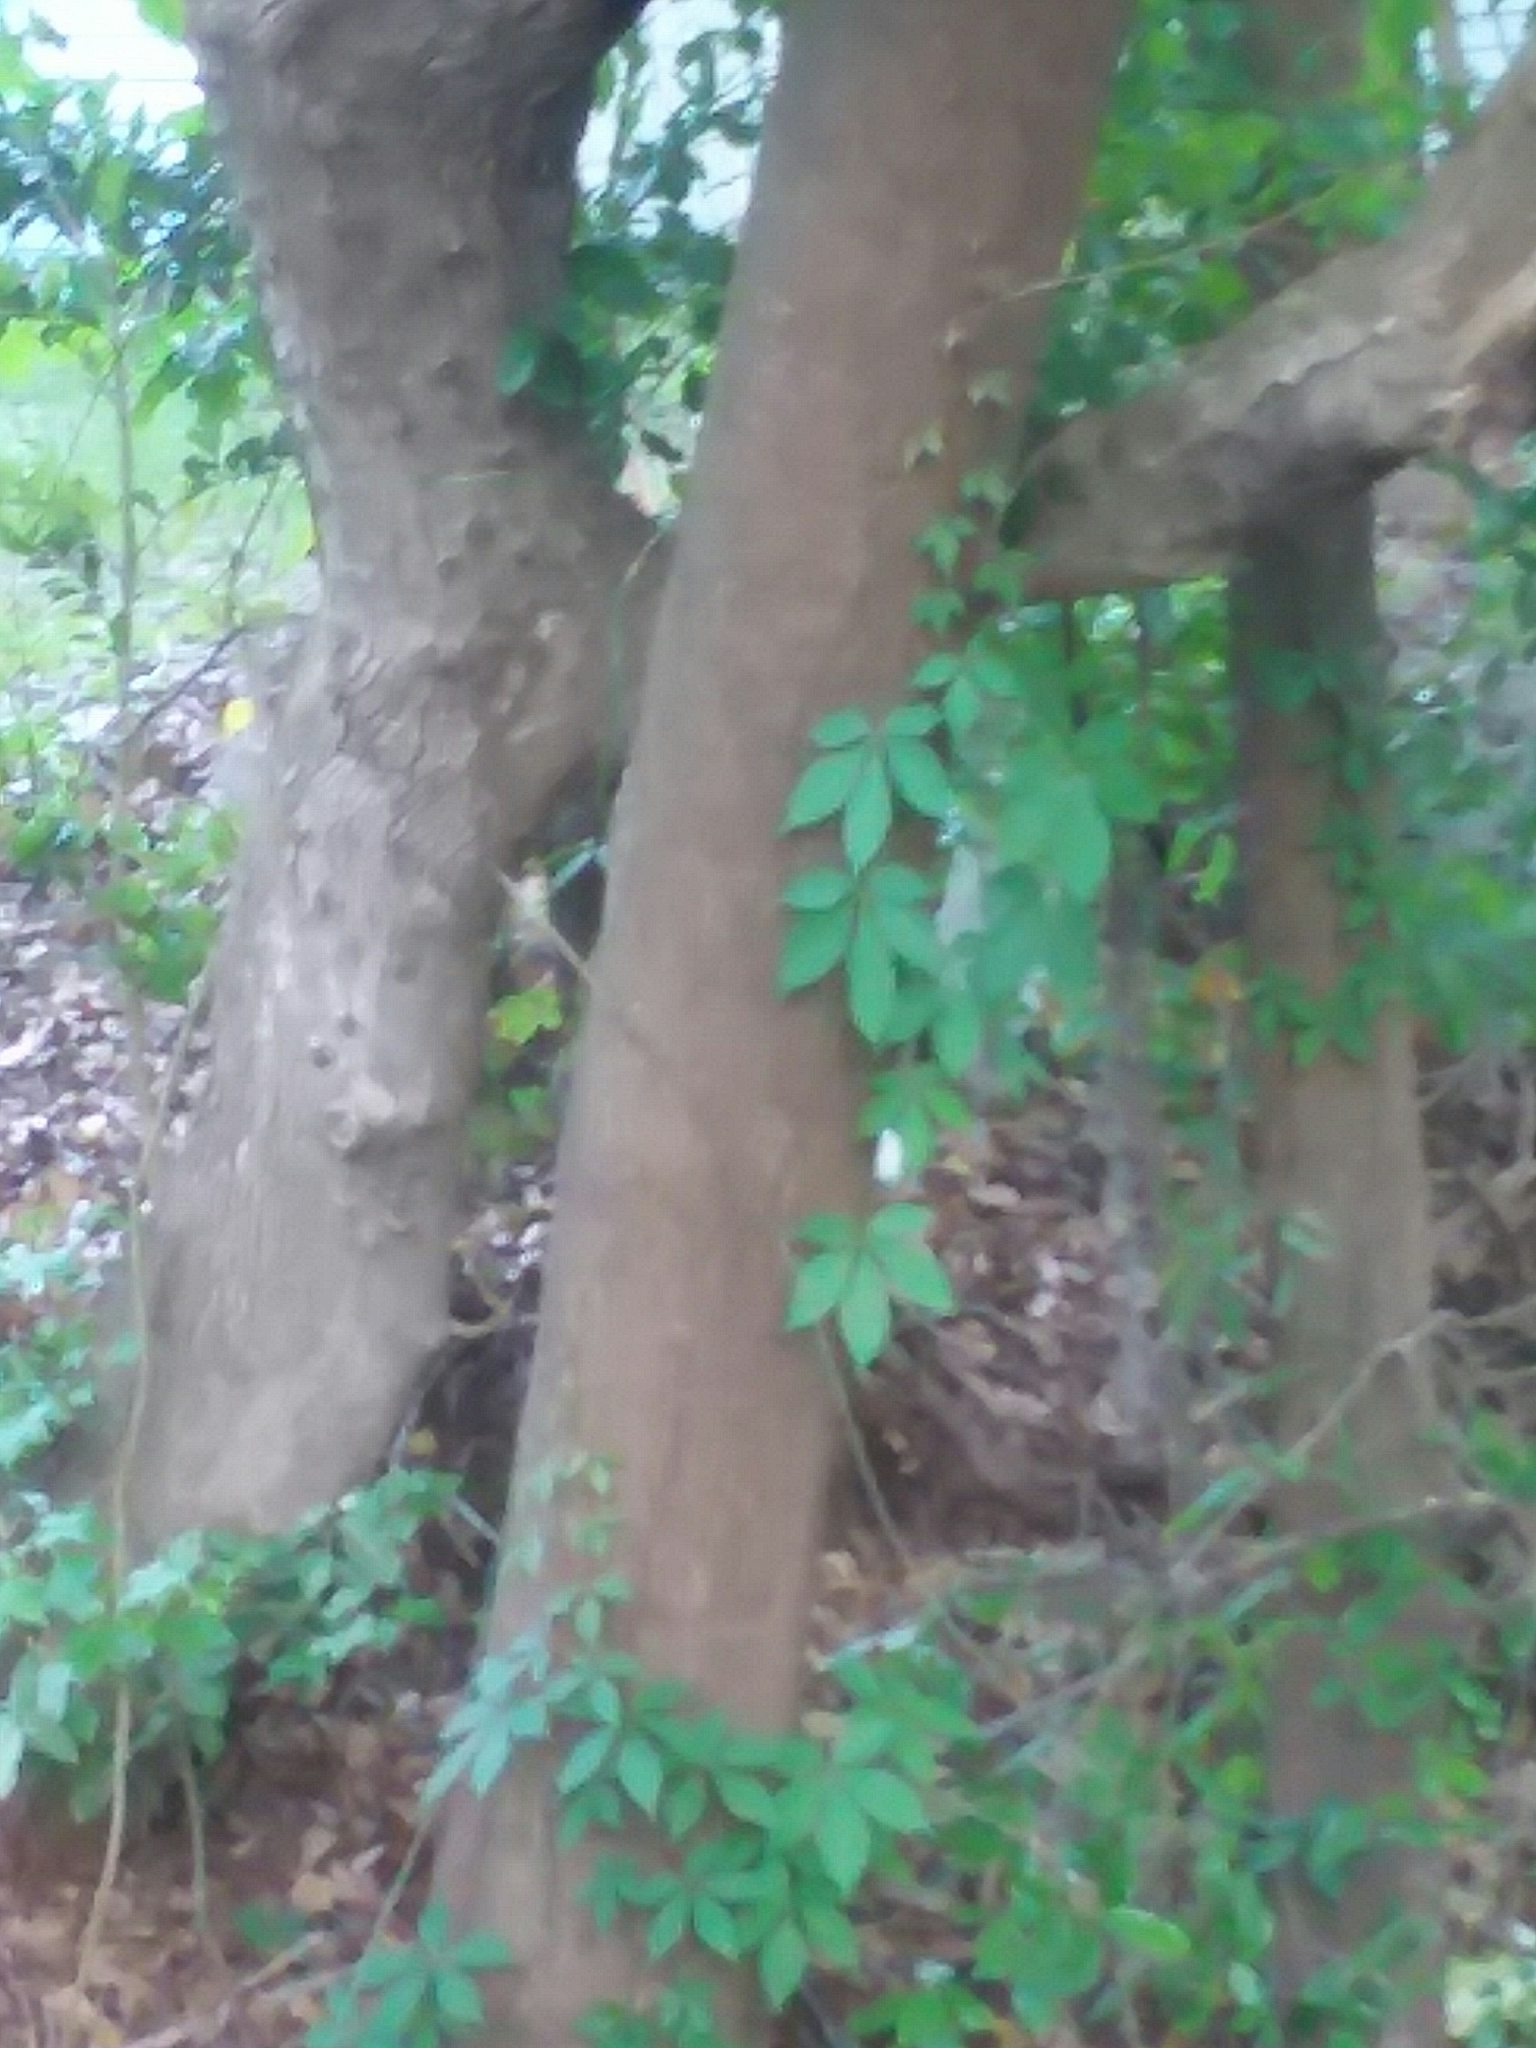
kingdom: Plantae
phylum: Tracheophyta
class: Magnoliopsida
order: Fagales
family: Fagaceae
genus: Quercus
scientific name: Quercus nigra
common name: Water oak
